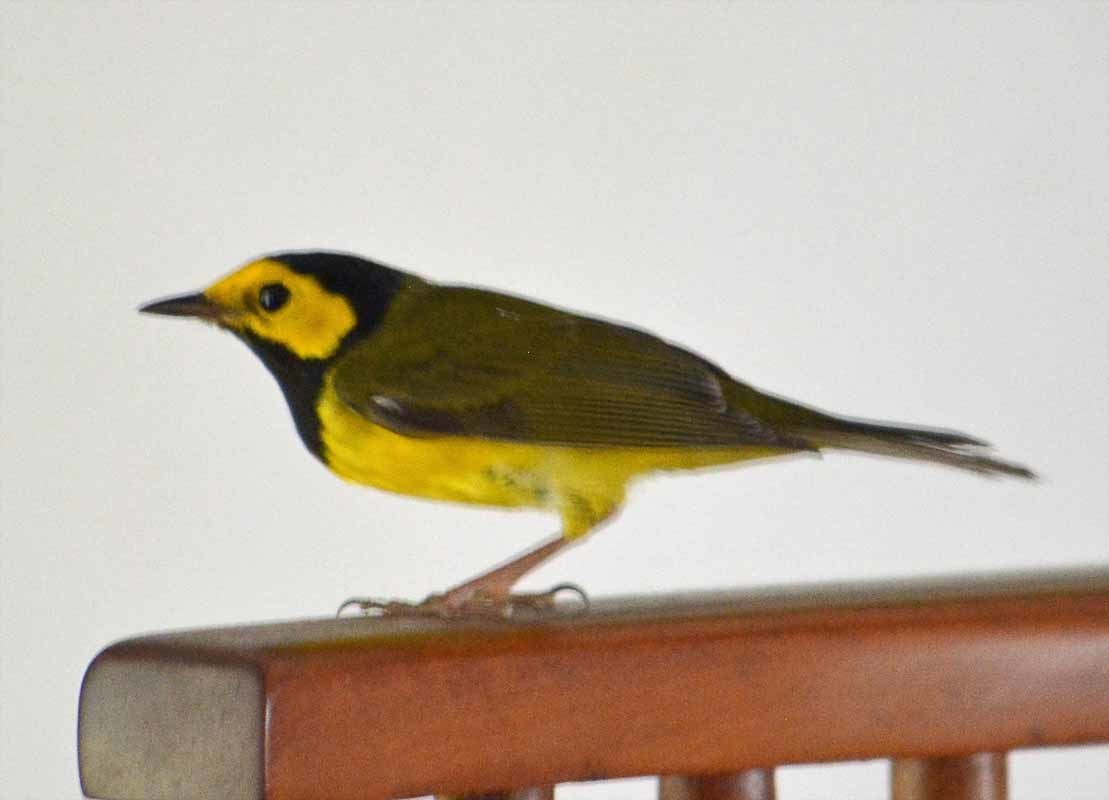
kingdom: Animalia
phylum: Chordata
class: Aves
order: Passeriformes
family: Parulidae
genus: Setophaga
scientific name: Setophaga citrina
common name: Hooded warbler
